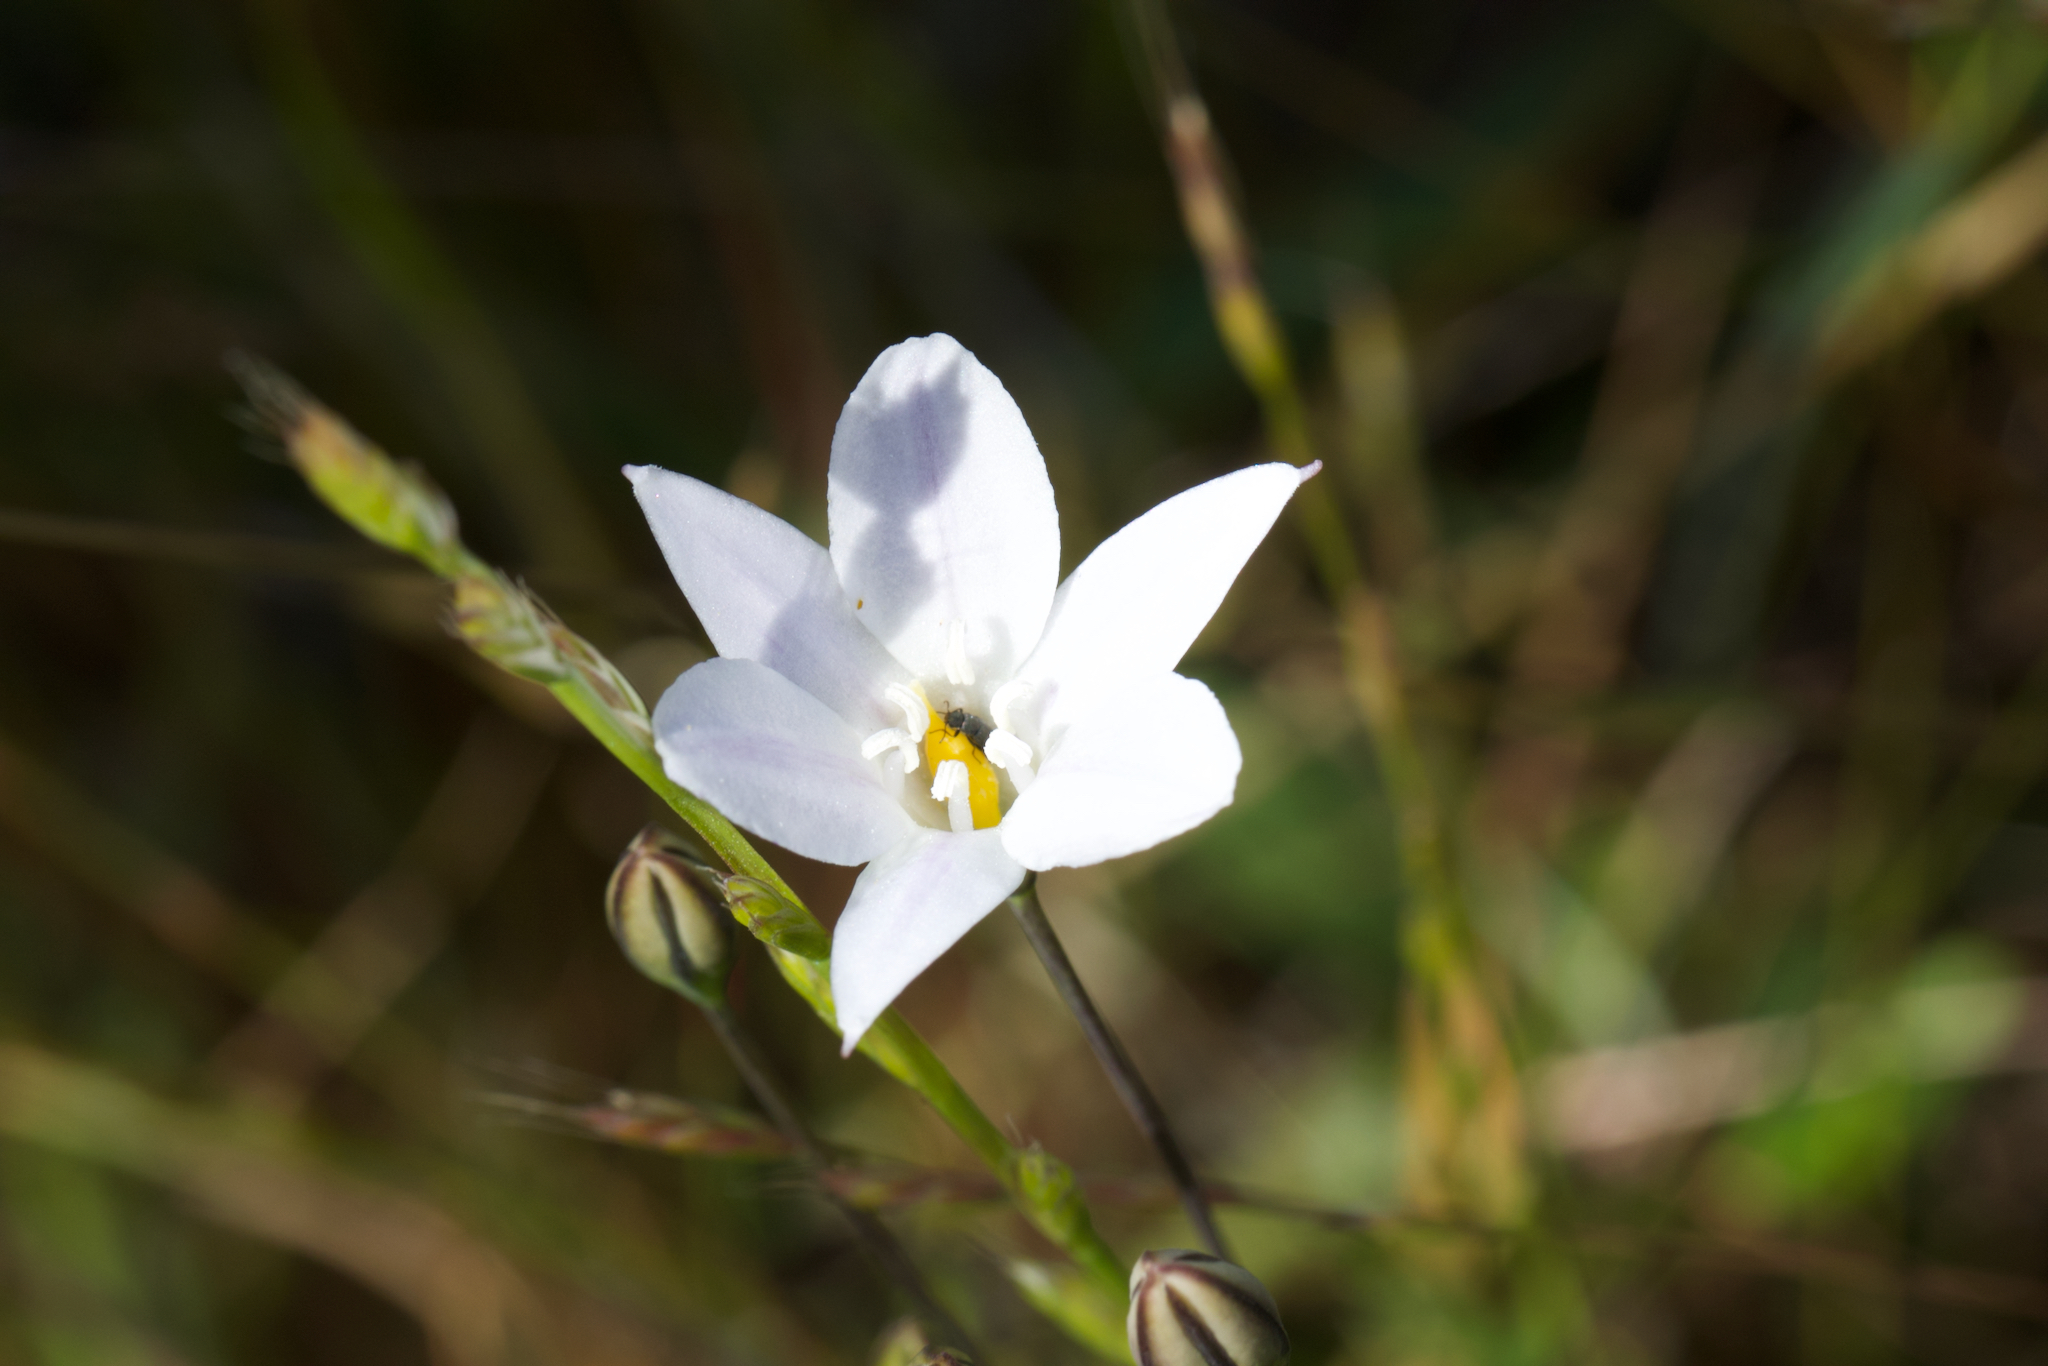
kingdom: Plantae
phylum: Tracheophyta
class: Liliopsida
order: Asparagales
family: Asparagaceae
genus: Triteleia
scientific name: Triteleia peduncularis
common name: Long-ray brodiaea
